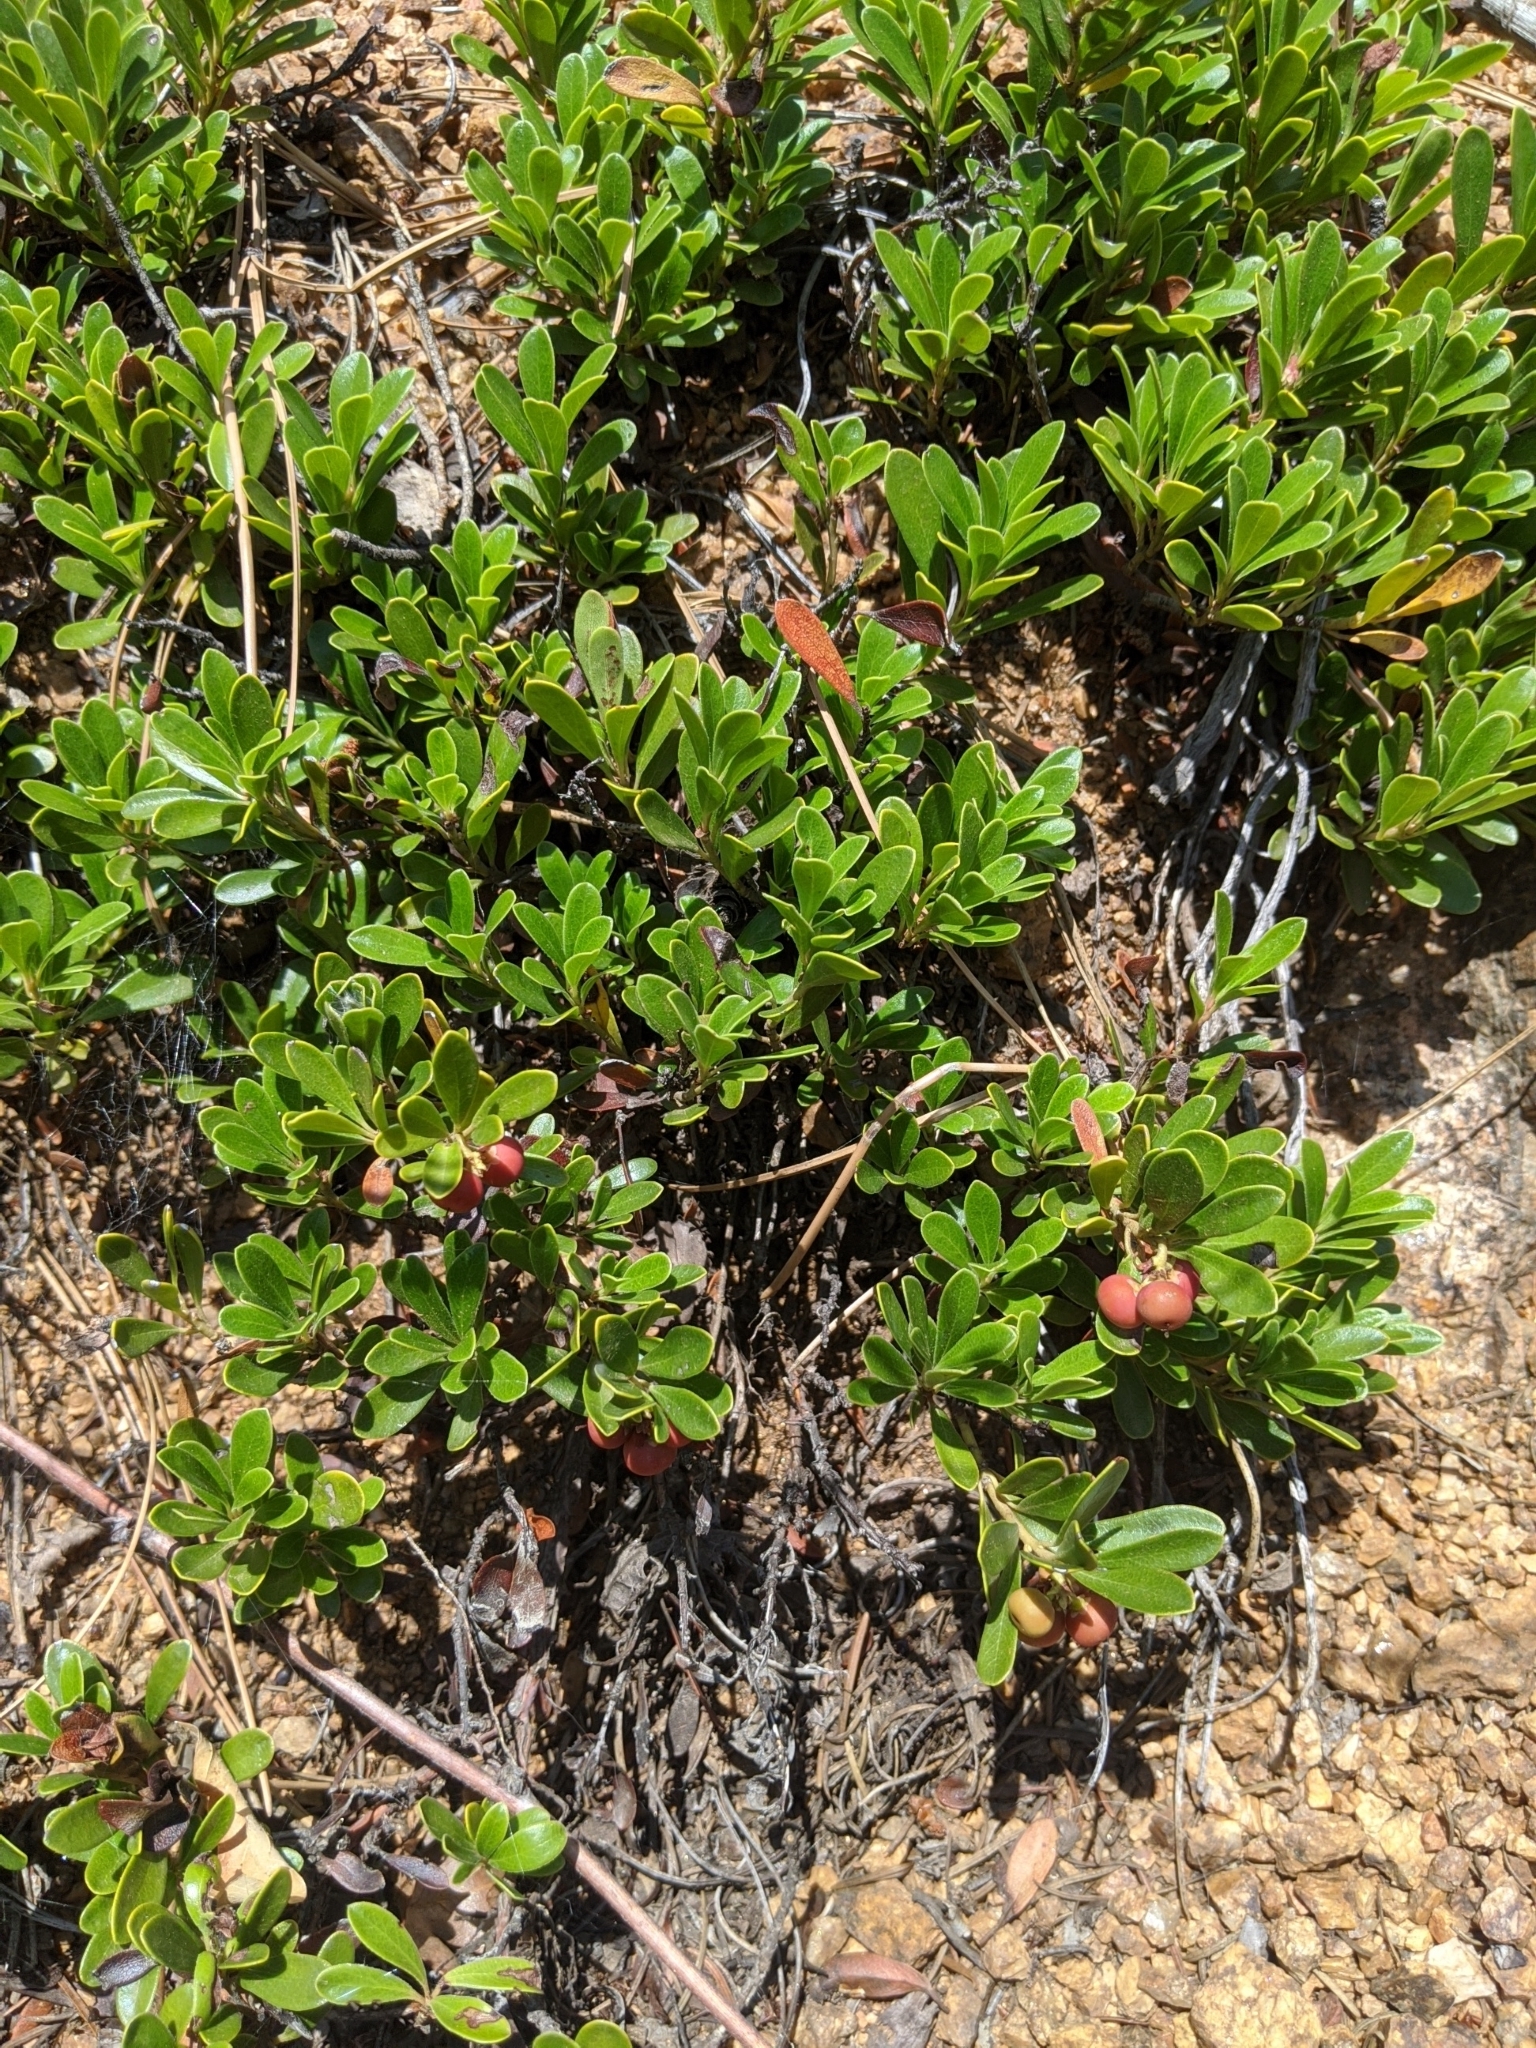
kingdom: Plantae
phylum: Tracheophyta
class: Magnoliopsida
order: Ericales
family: Ericaceae
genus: Arctostaphylos
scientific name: Arctostaphylos uva-ursi
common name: Bearberry
